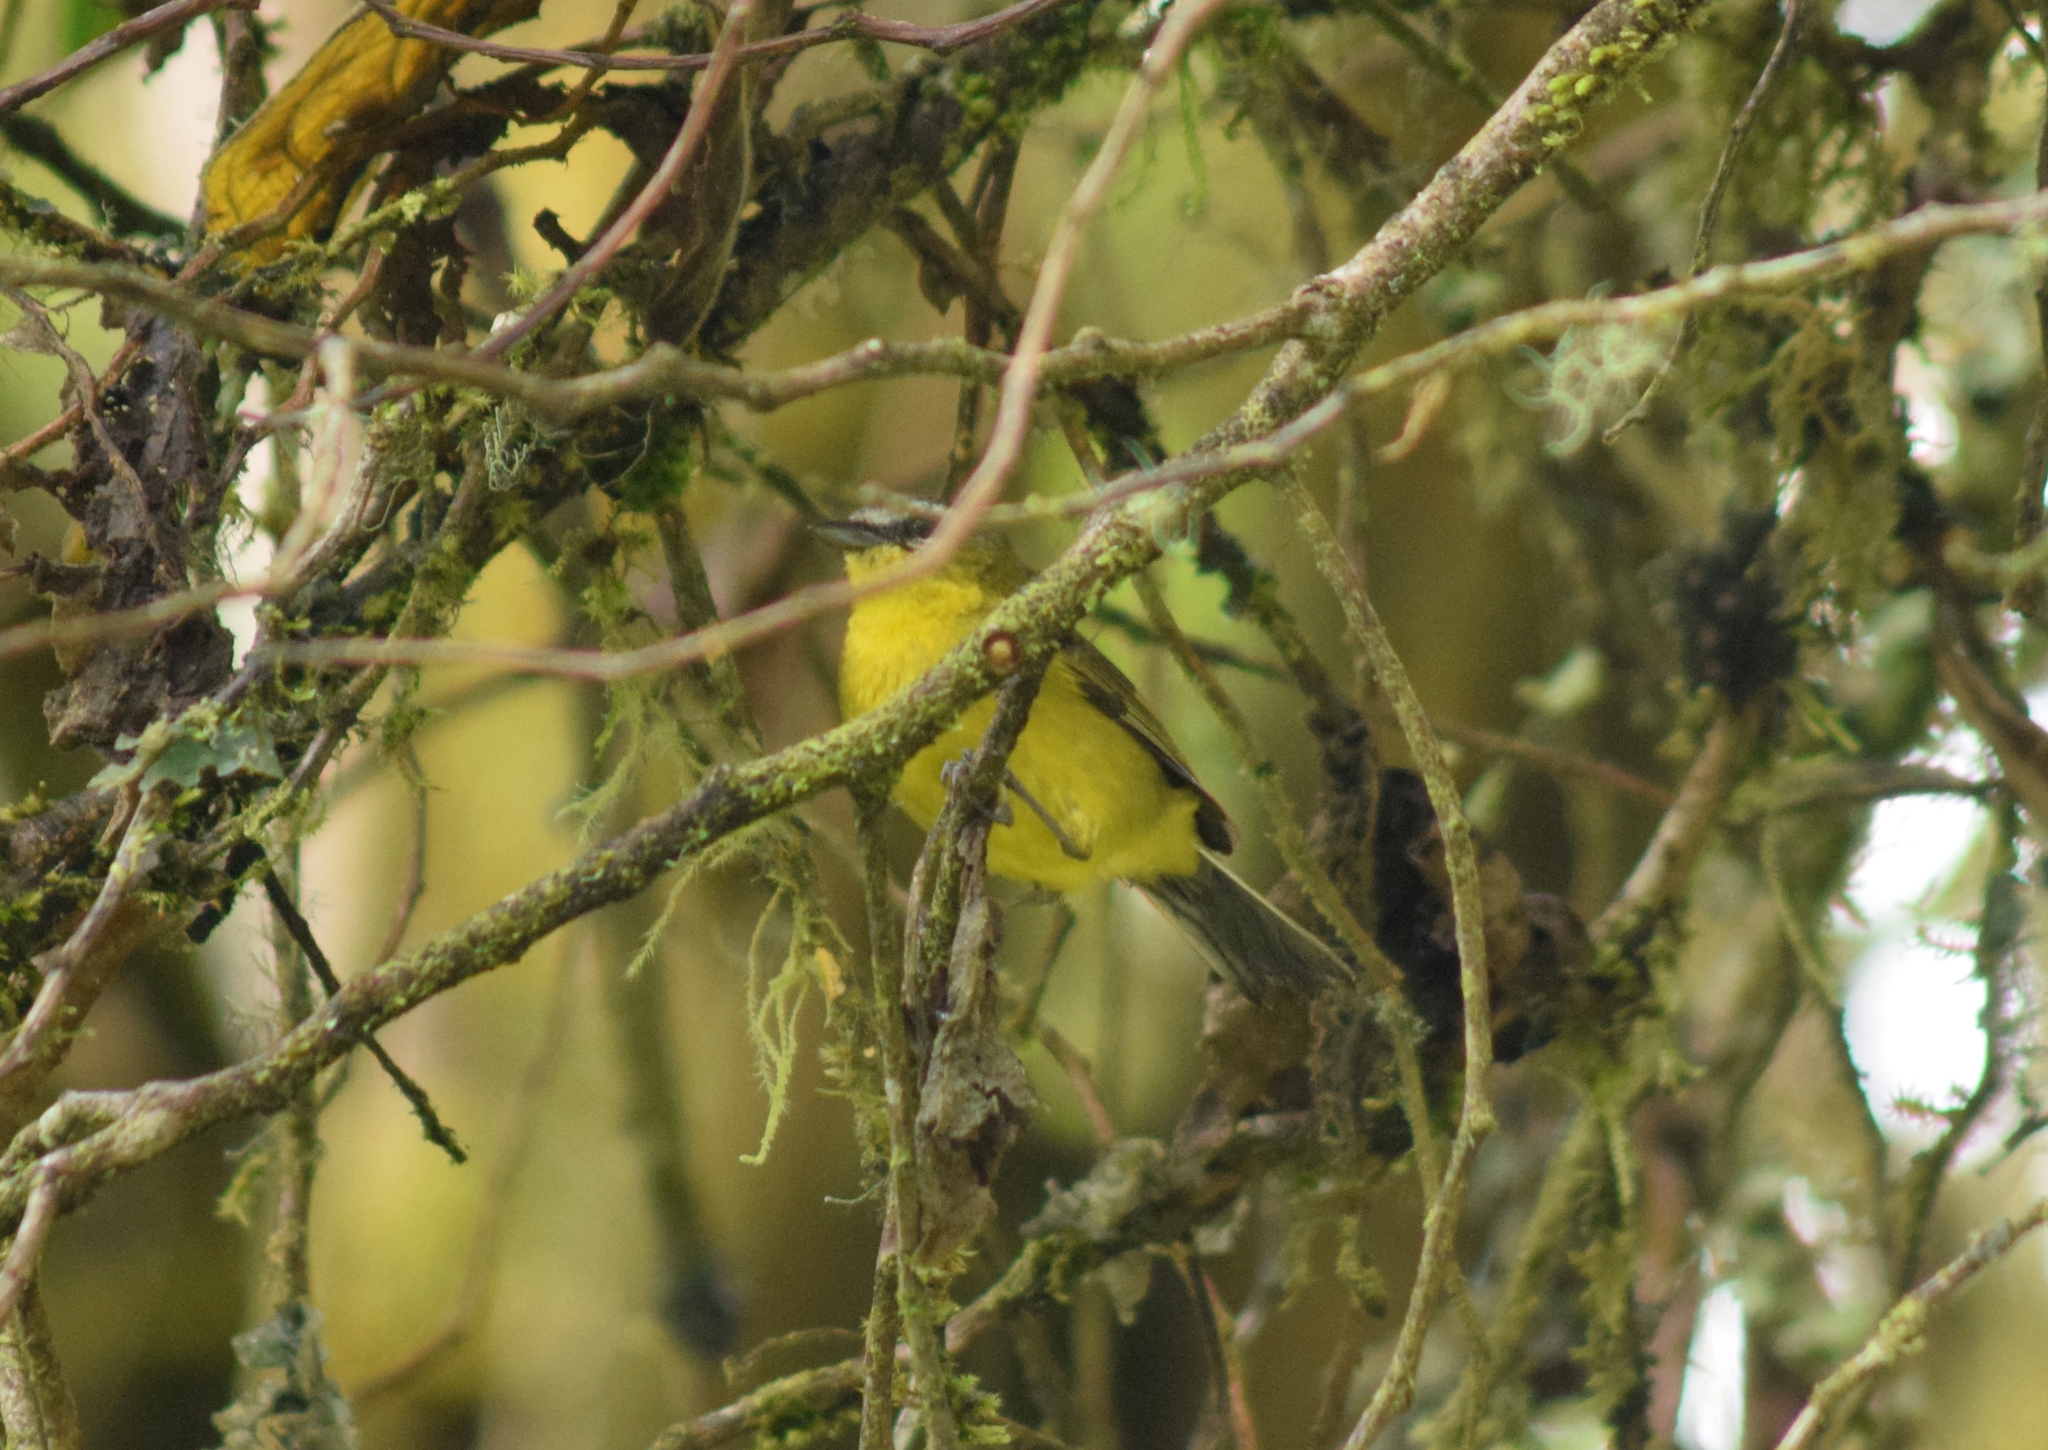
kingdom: Animalia
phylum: Chordata
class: Aves
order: Passeriformes
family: Thraupidae
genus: Thlypopsis
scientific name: Thlypopsis superciliaris
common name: Superciliaried hemispingus
